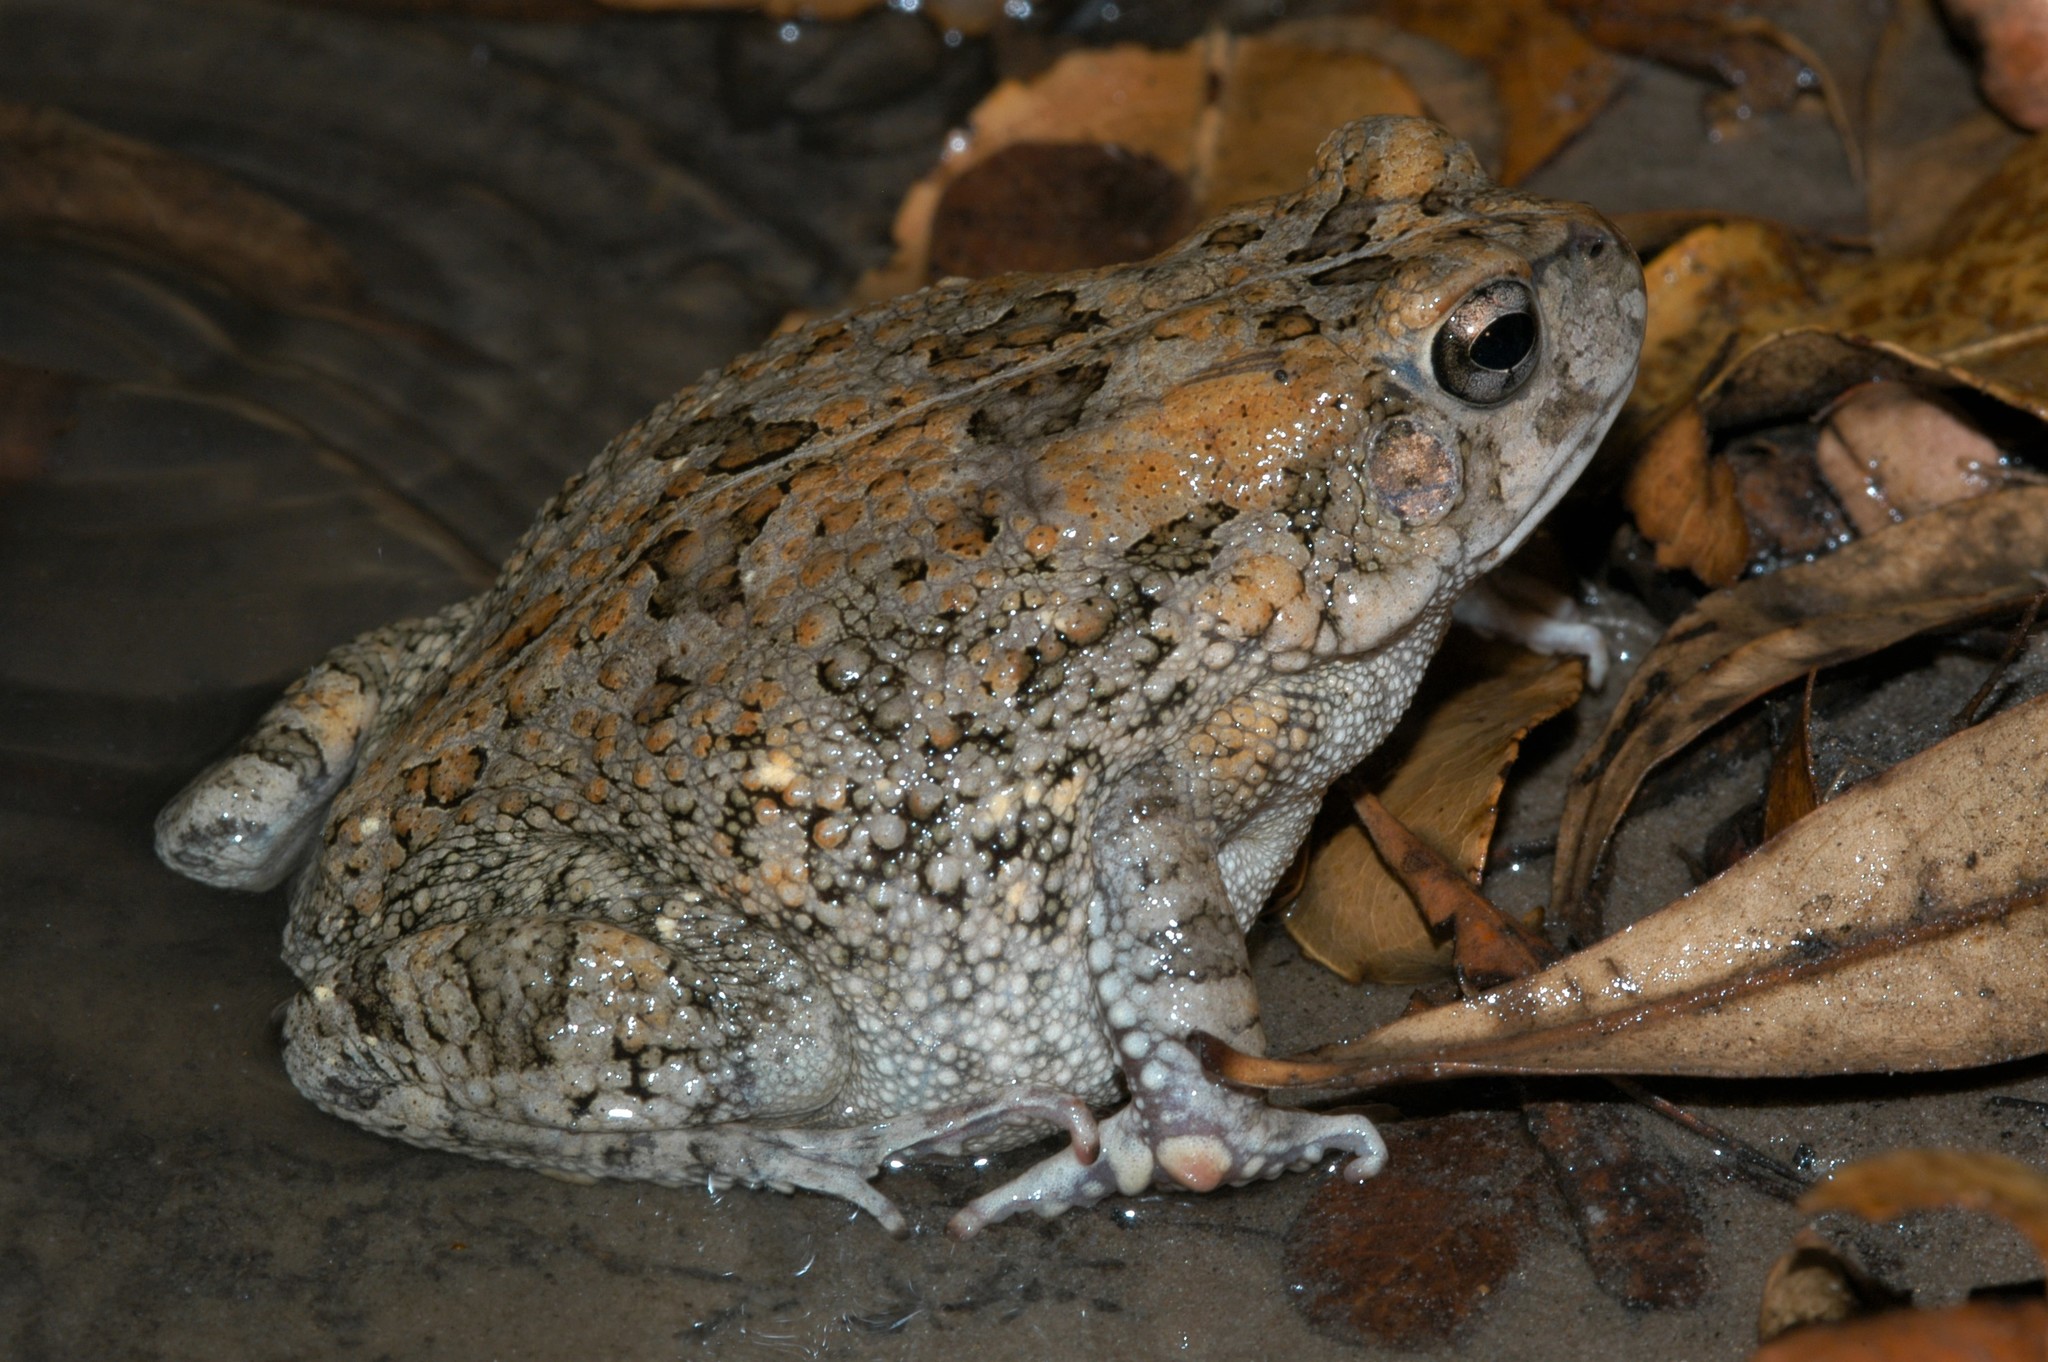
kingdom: Animalia
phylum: Chordata
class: Amphibia
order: Anura
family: Bufonidae
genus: Sclerophrys
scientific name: Sclerophrys pusilla
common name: Merten's striped toad
